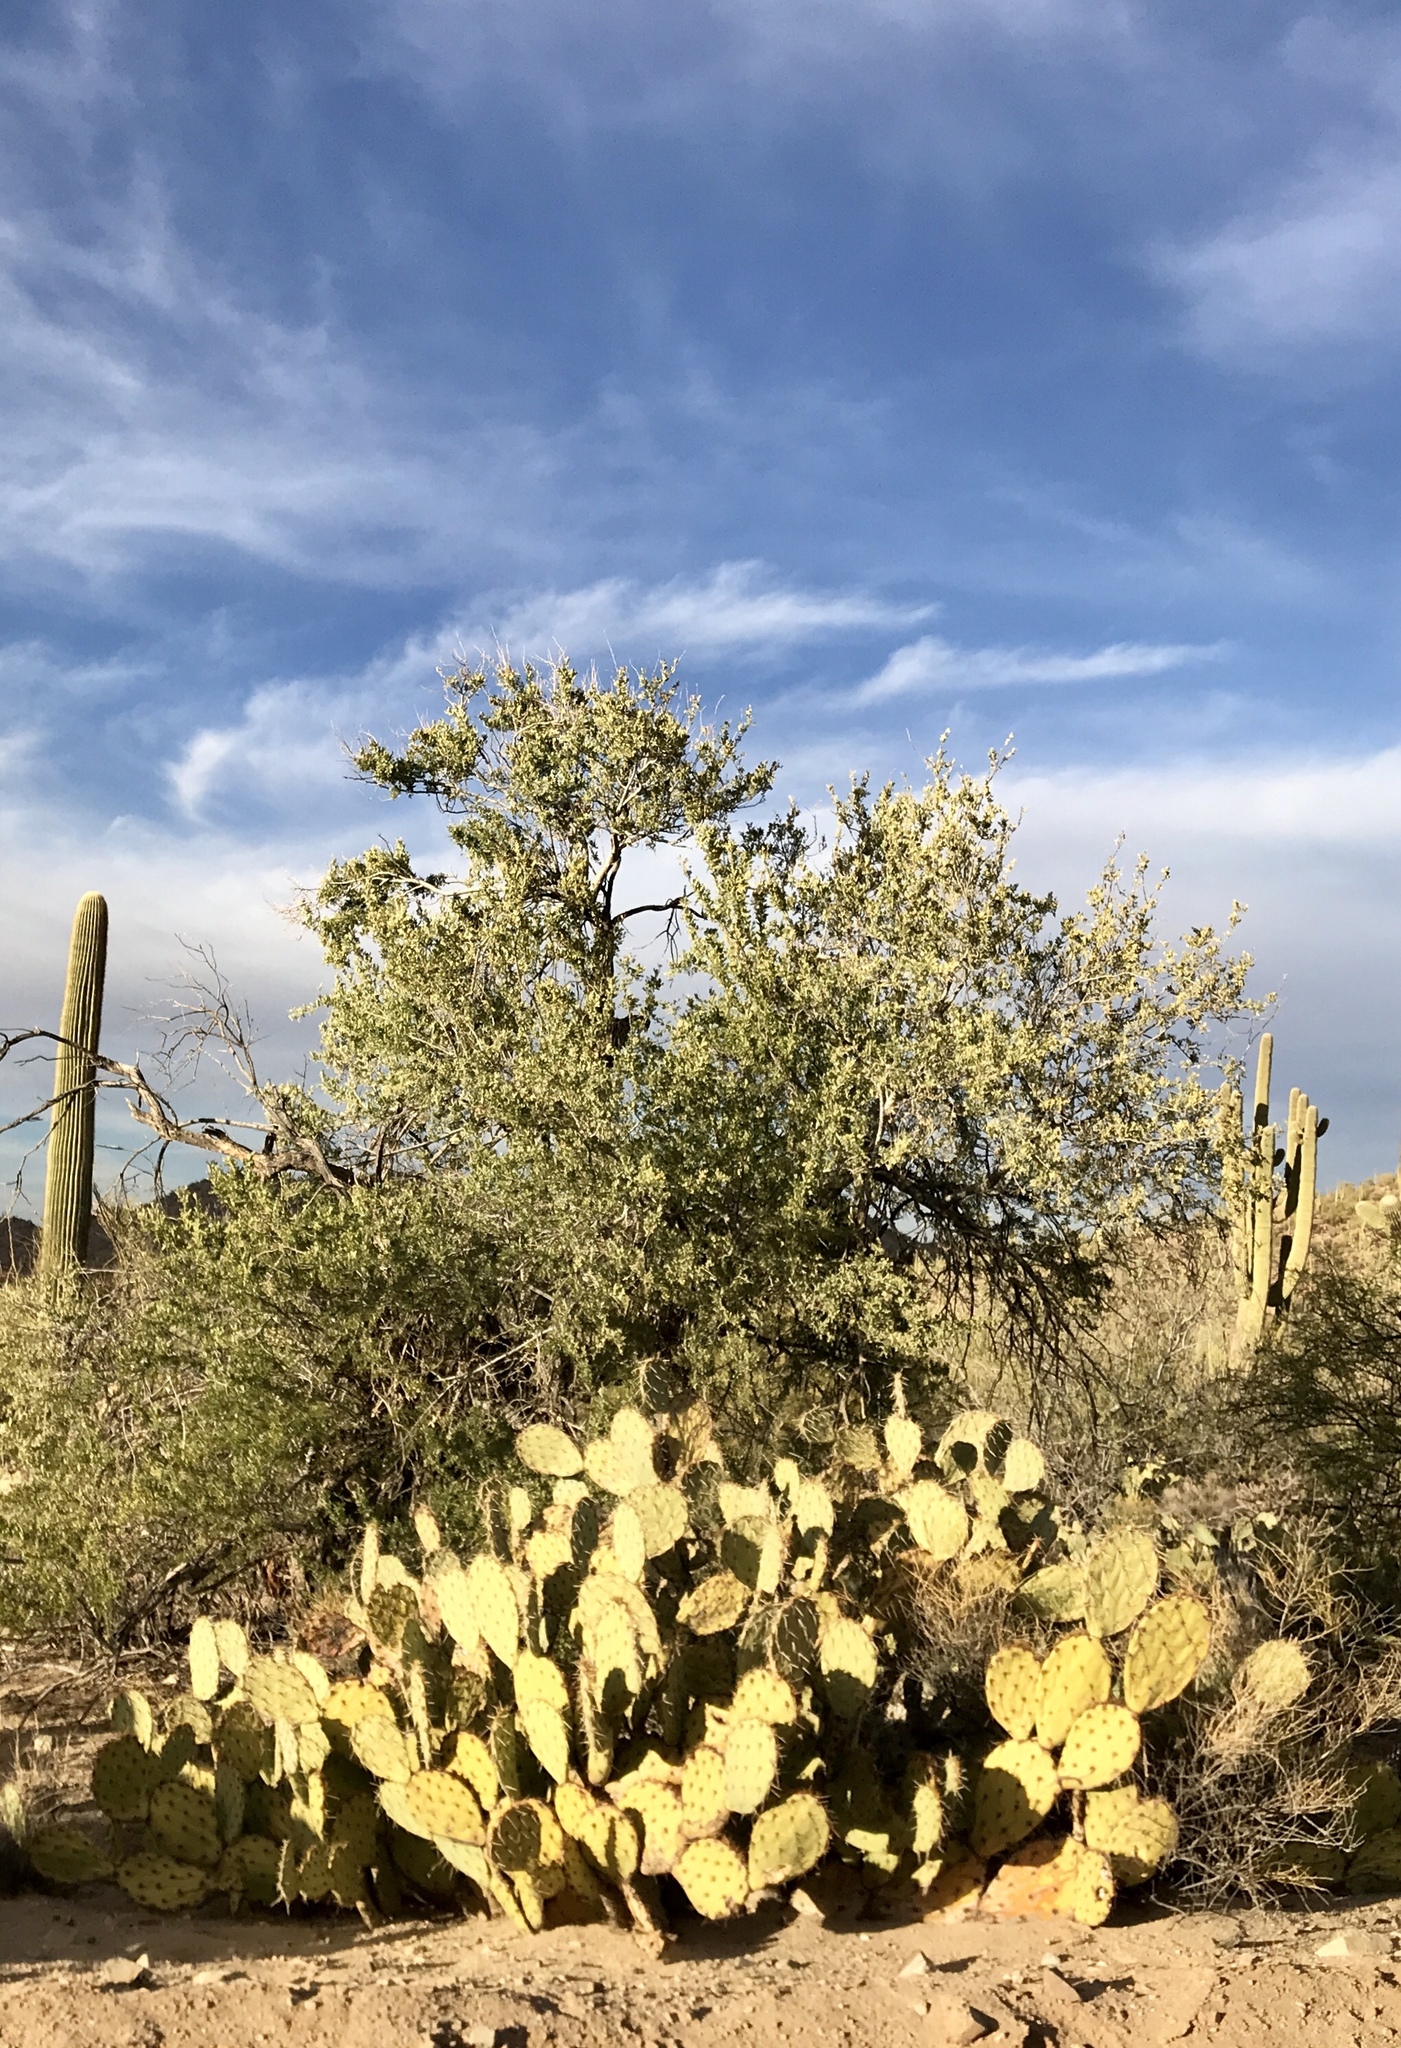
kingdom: Plantae
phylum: Tracheophyta
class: Magnoliopsida
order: Fabales
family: Fabaceae
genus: Olneya
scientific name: Olneya tesota
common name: Desert ironwood
